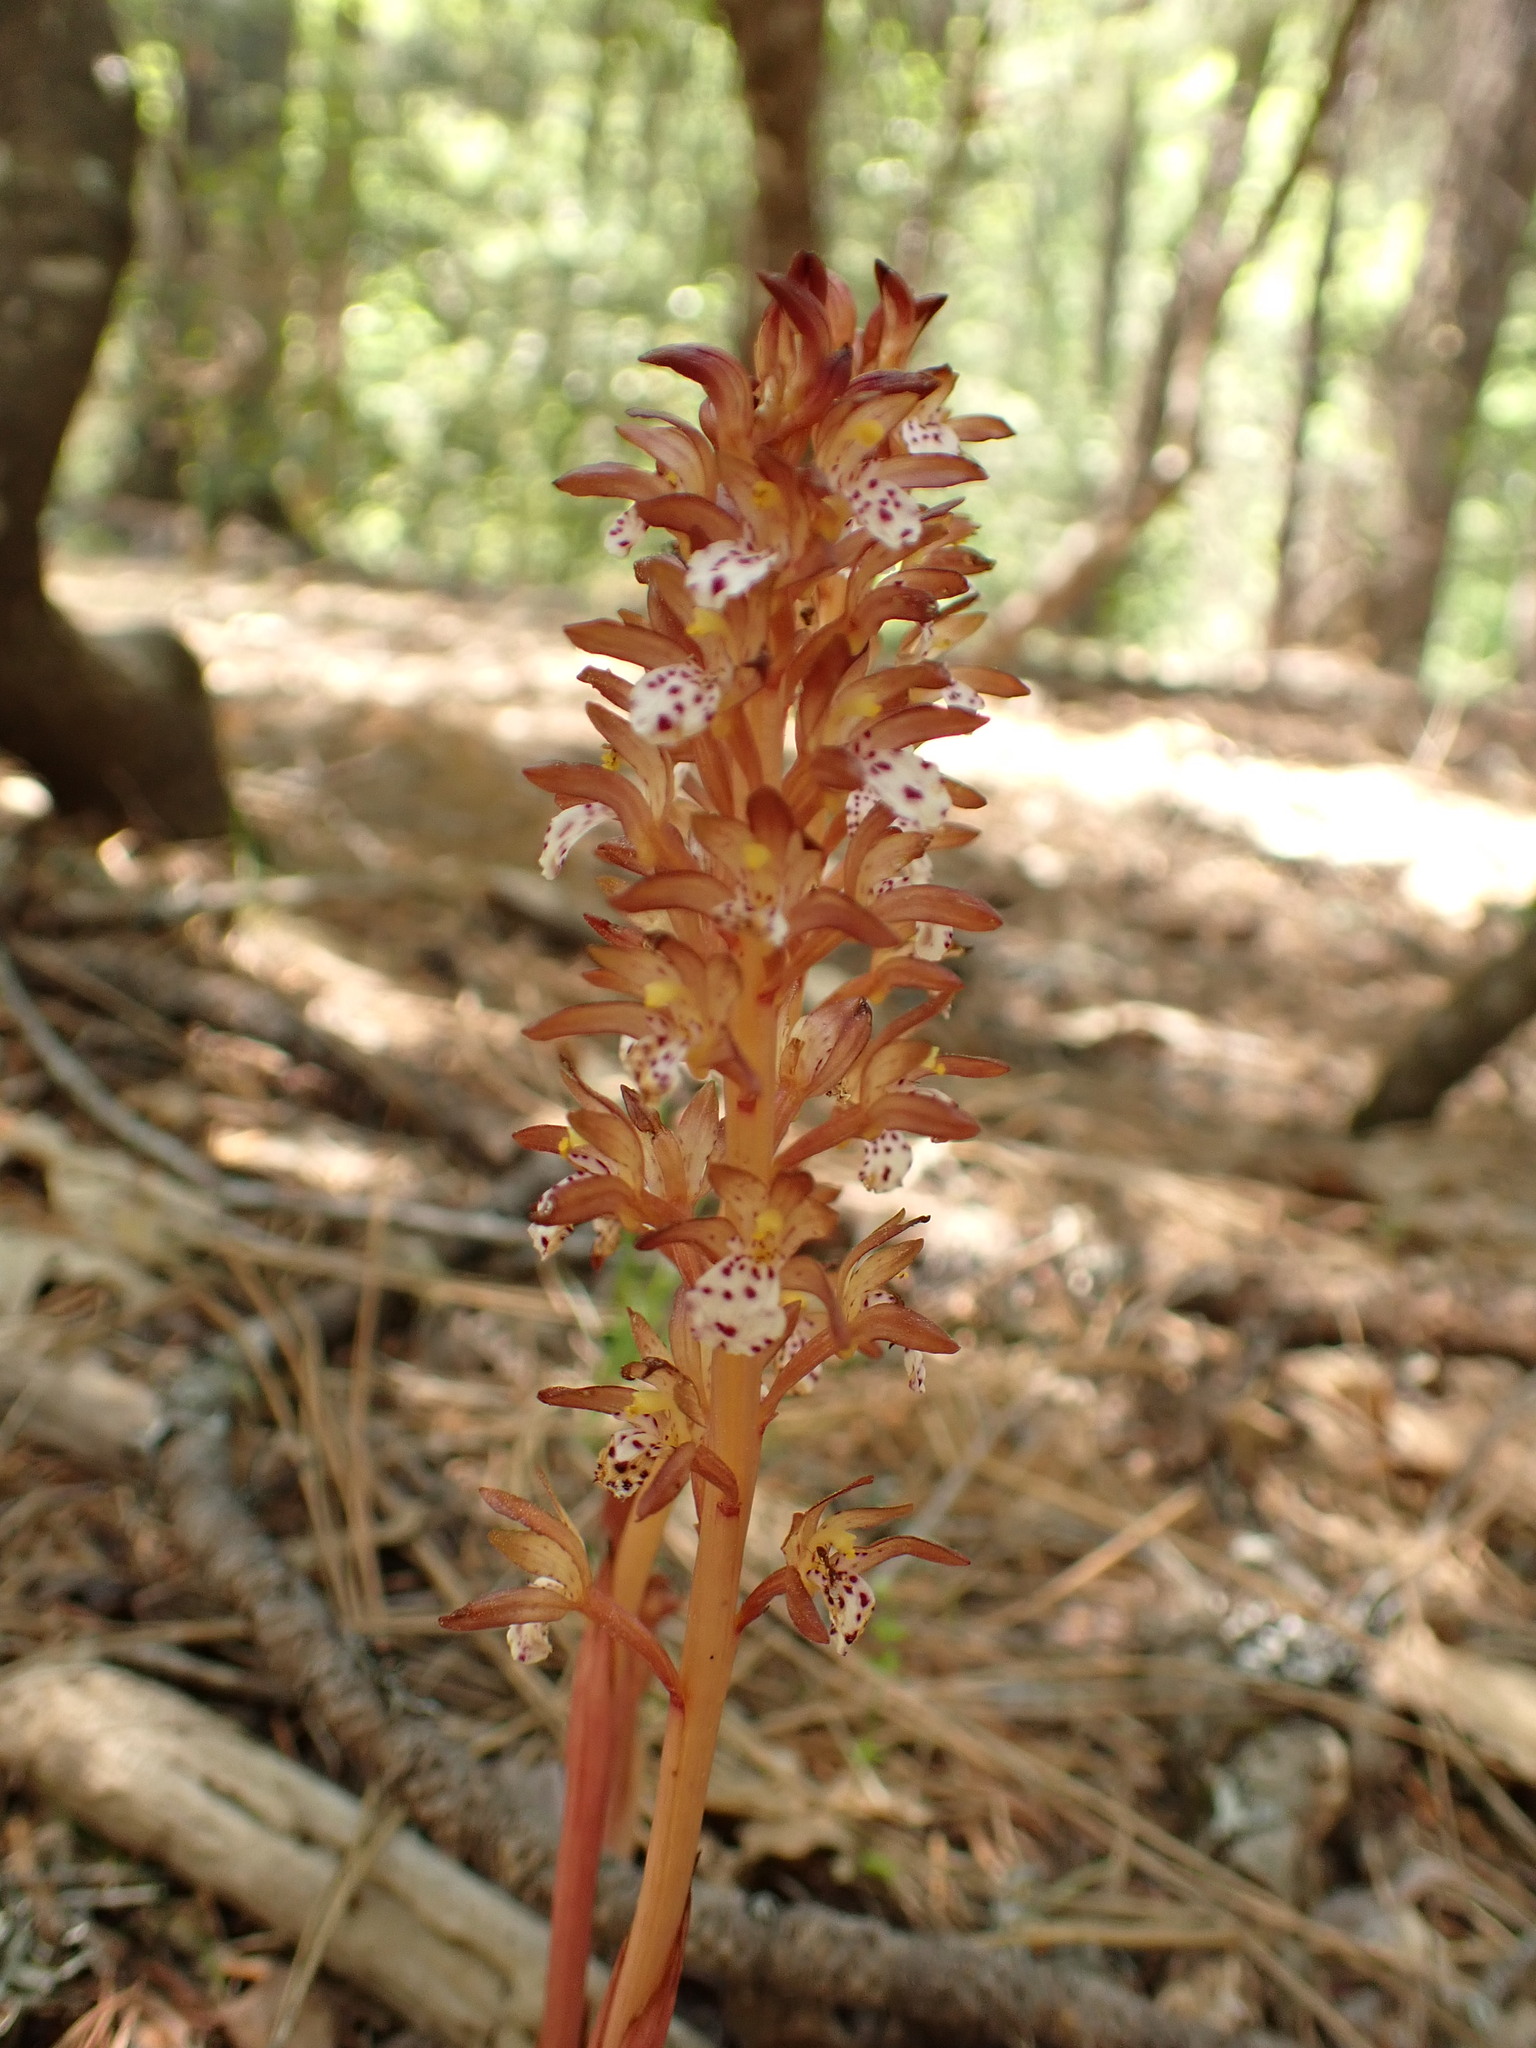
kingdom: Plantae
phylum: Tracheophyta
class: Liliopsida
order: Asparagales
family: Orchidaceae
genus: Corallorhiza
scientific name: Corallorhiza maculata
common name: Spotted coralroot
